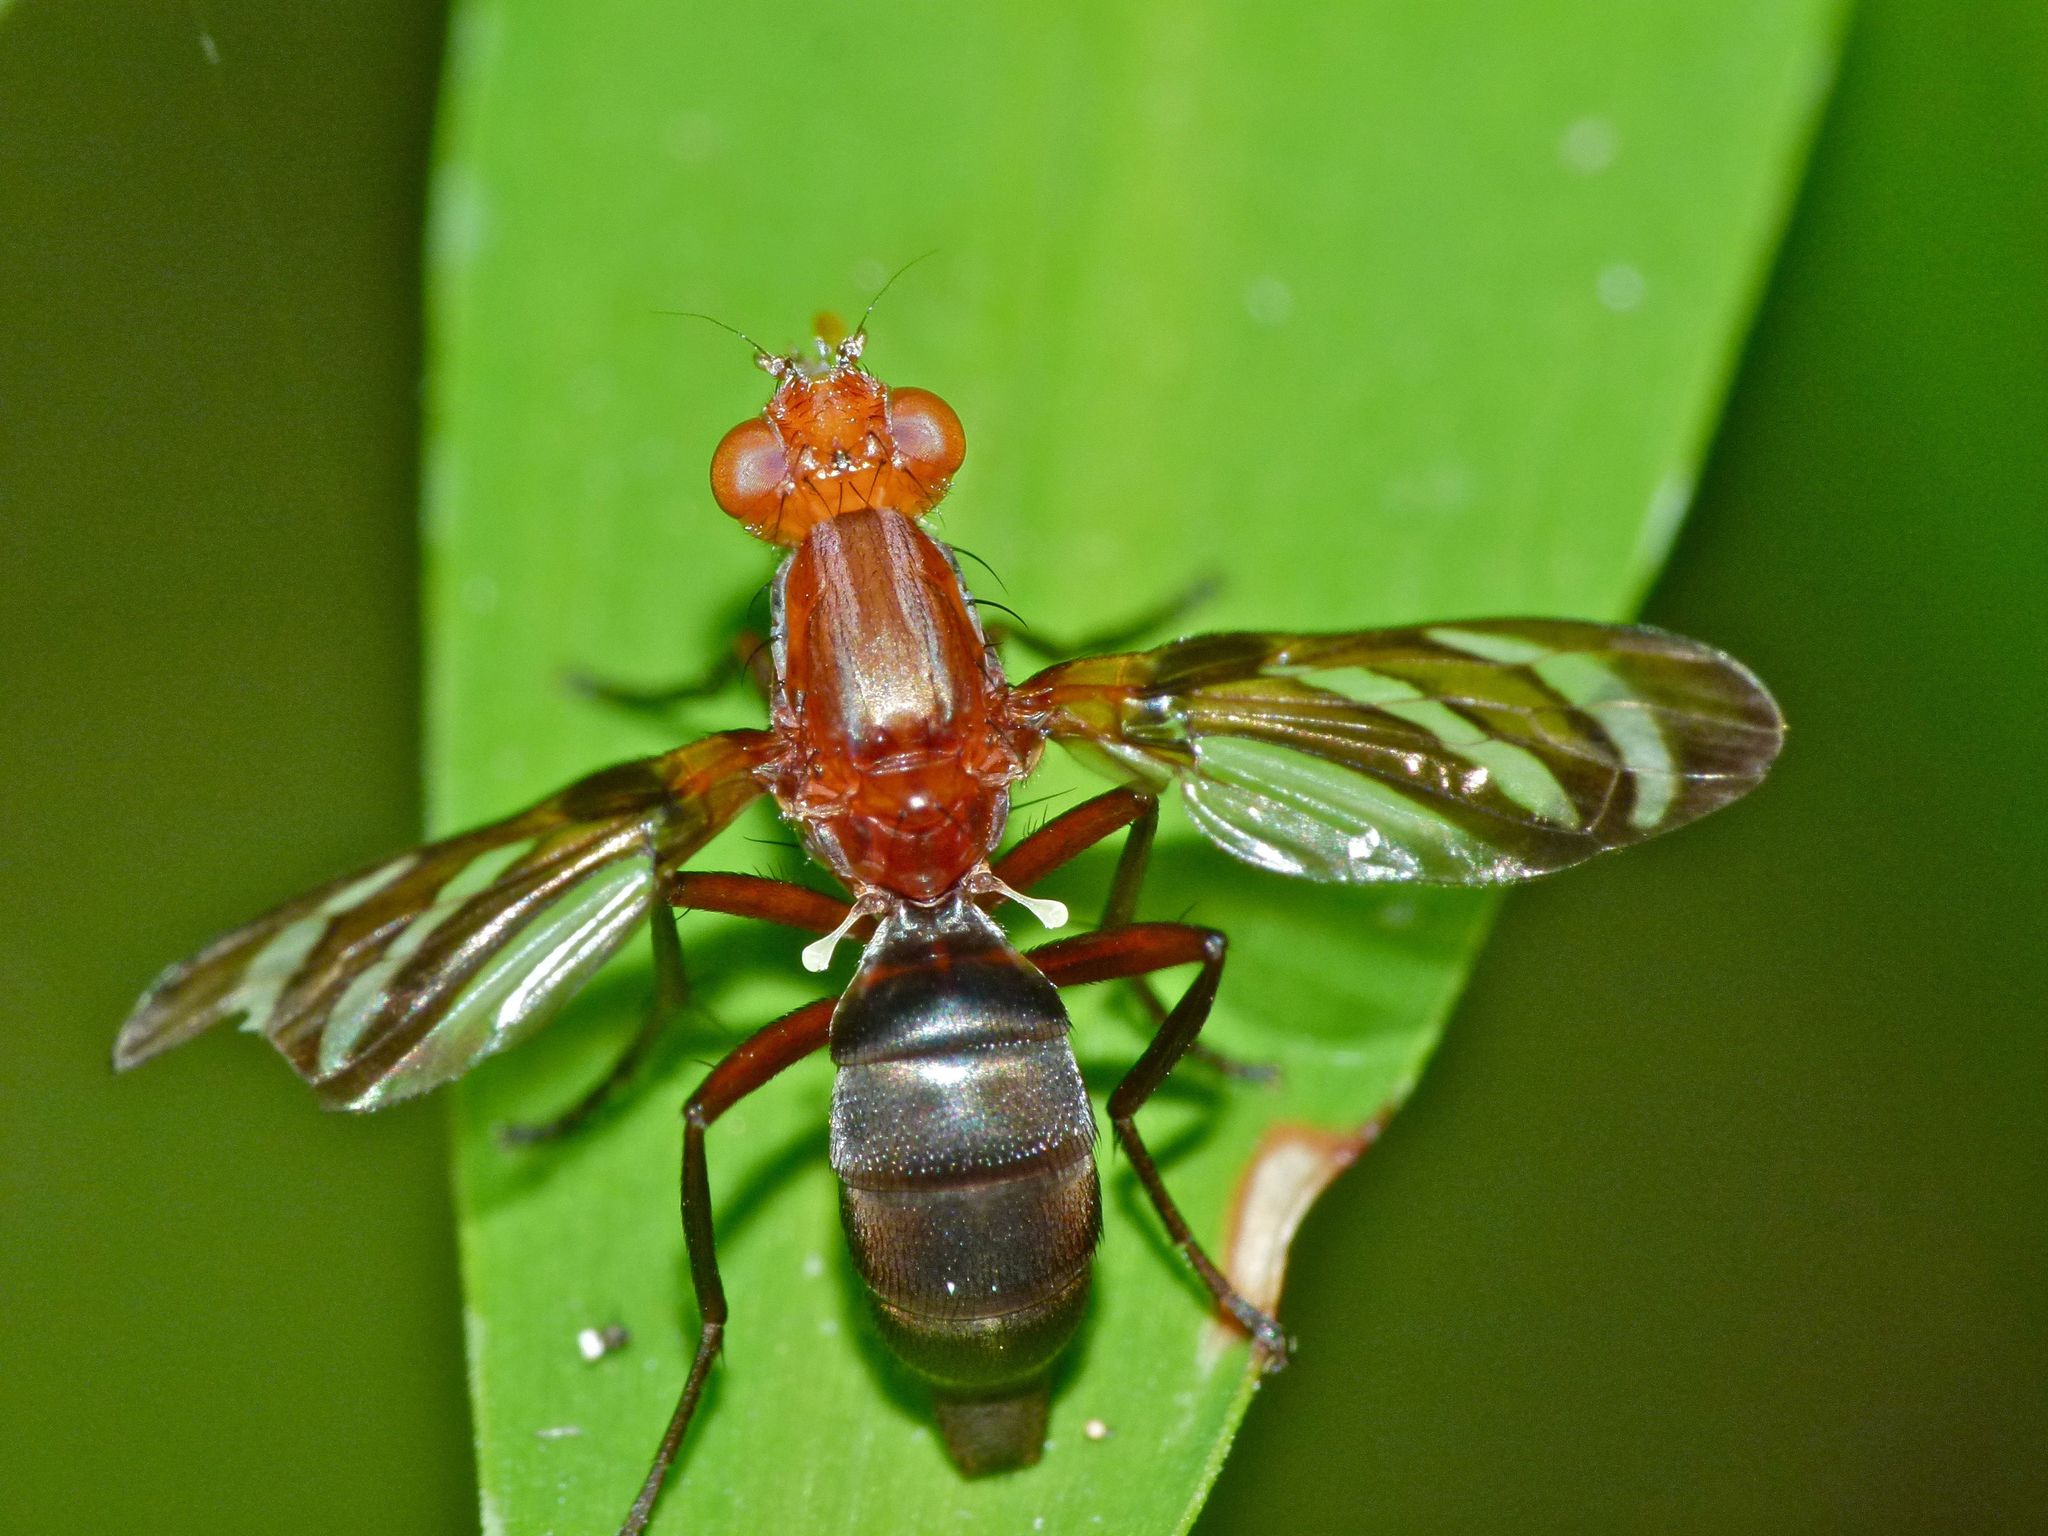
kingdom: Animalia
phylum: Arthropoda
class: Insecta
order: Diptera
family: Ulidiidae
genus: Tritoxa
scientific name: Tritoxa incurva
